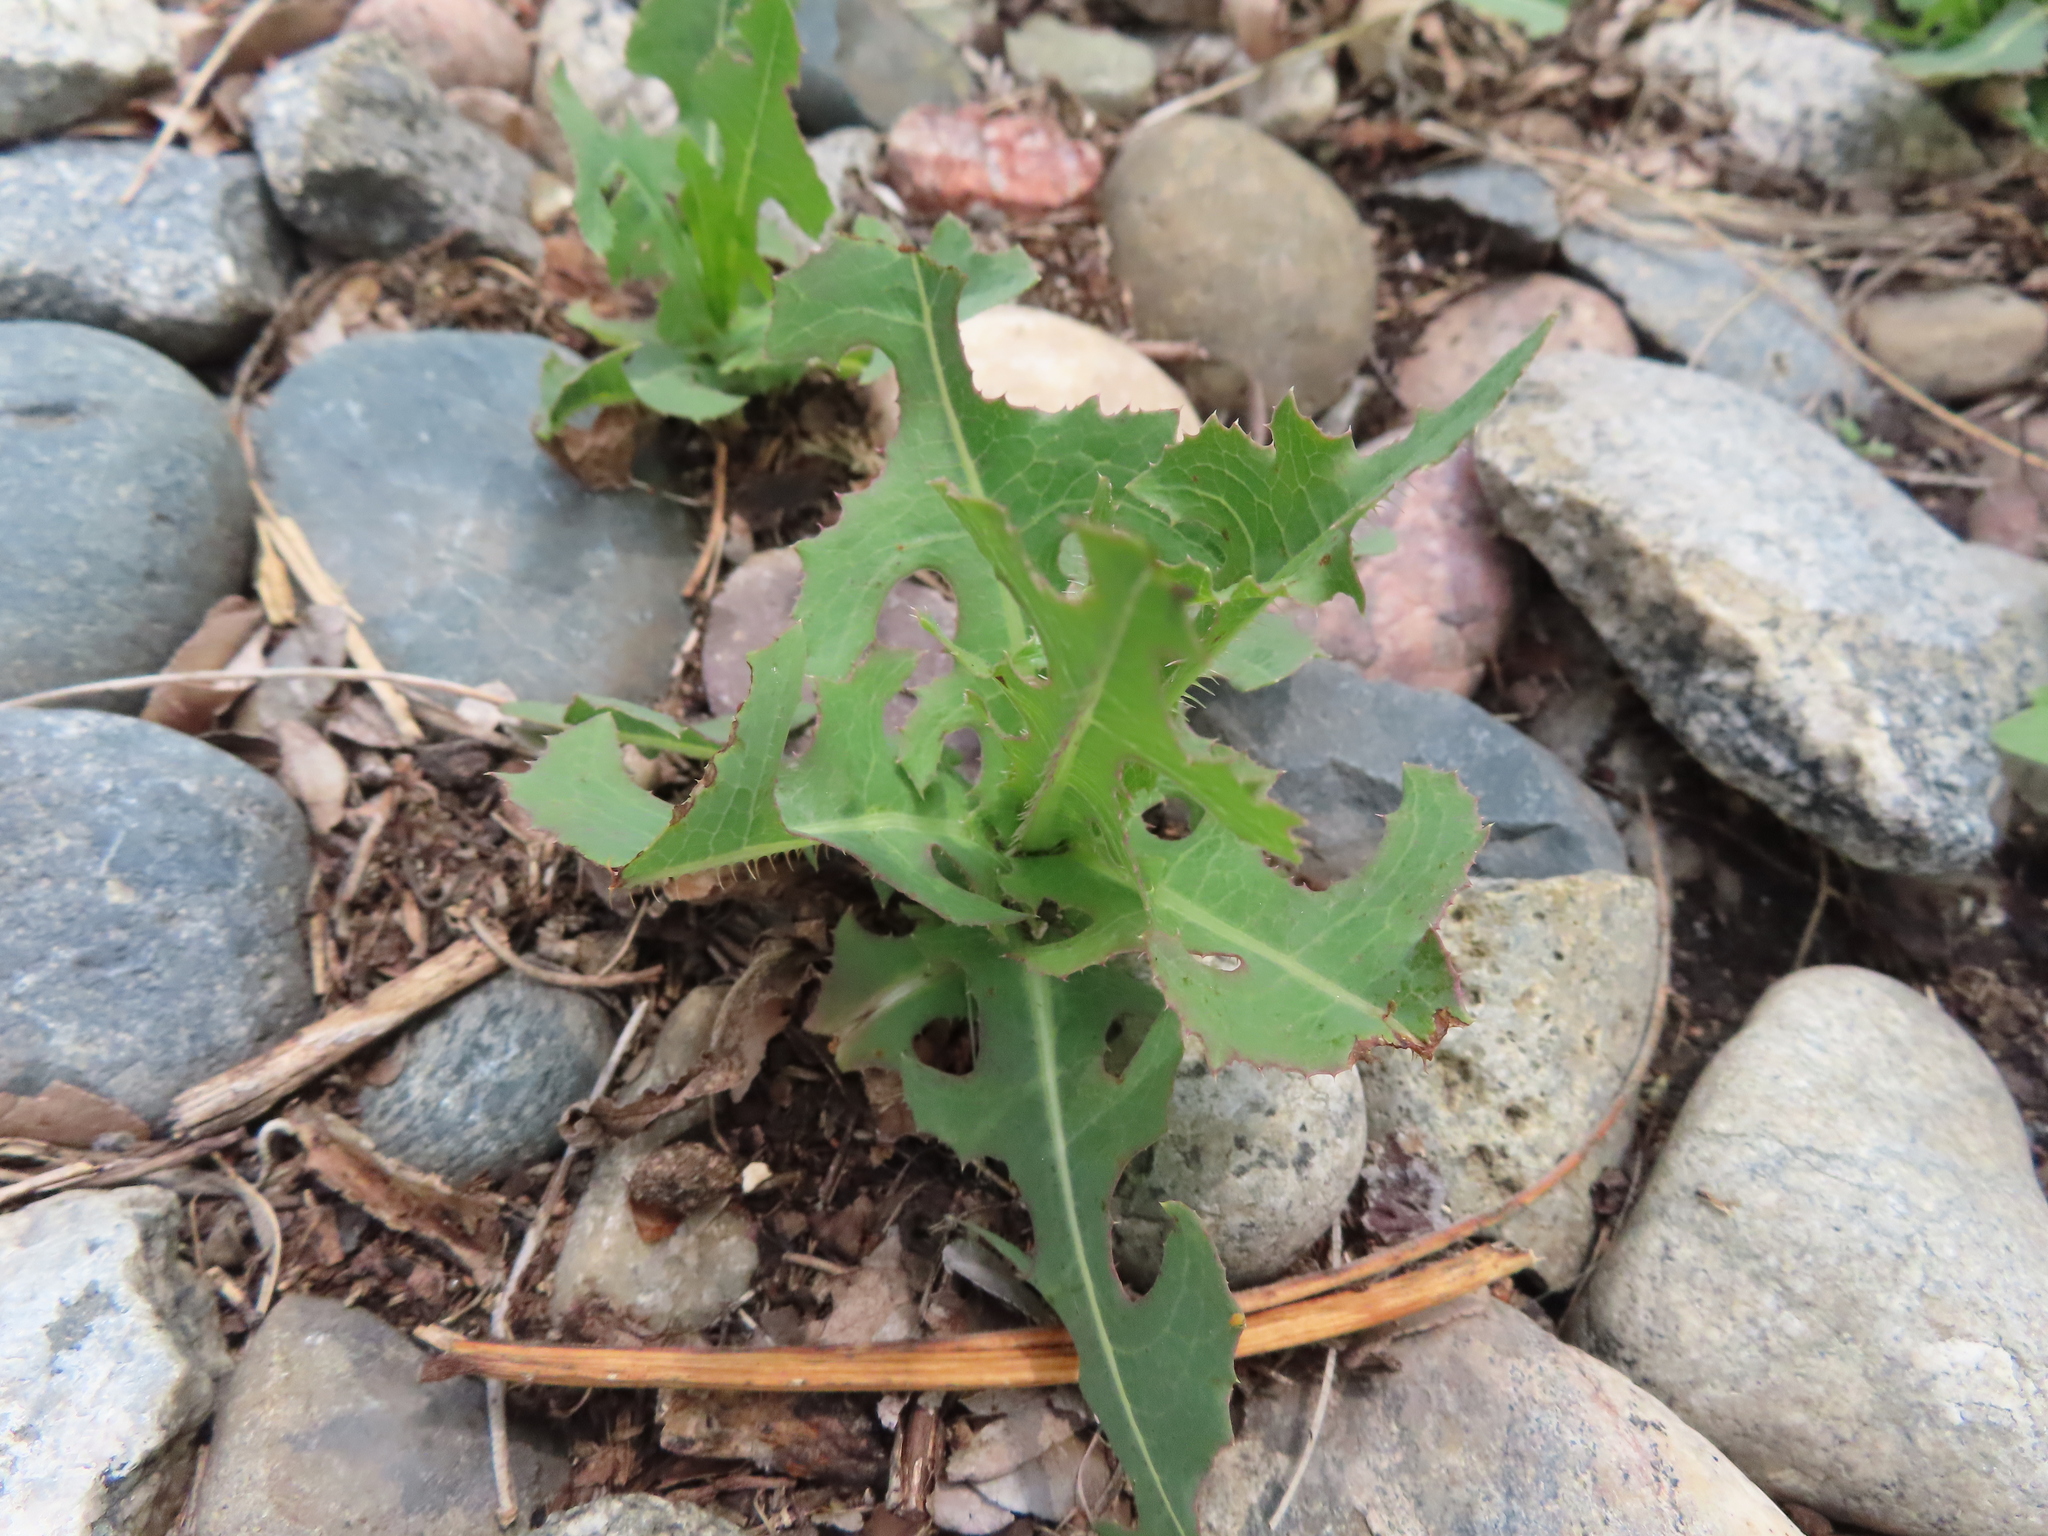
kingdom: Plantae
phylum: Tracheophyta
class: Magnoliopsida
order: Asterales
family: Asteraceae
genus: Lactuca
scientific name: Lactuca serriola
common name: Prickly lettuce
